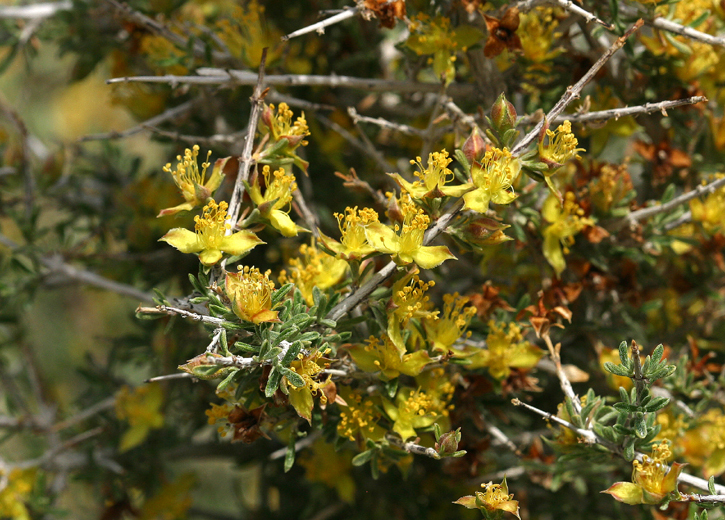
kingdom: Plantae
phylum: Tracheophyta
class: Magnoliopsida
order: Rosales
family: Rosaceae
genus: Coleogyne
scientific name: Coleogyne ramosissima
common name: Blackbrush
